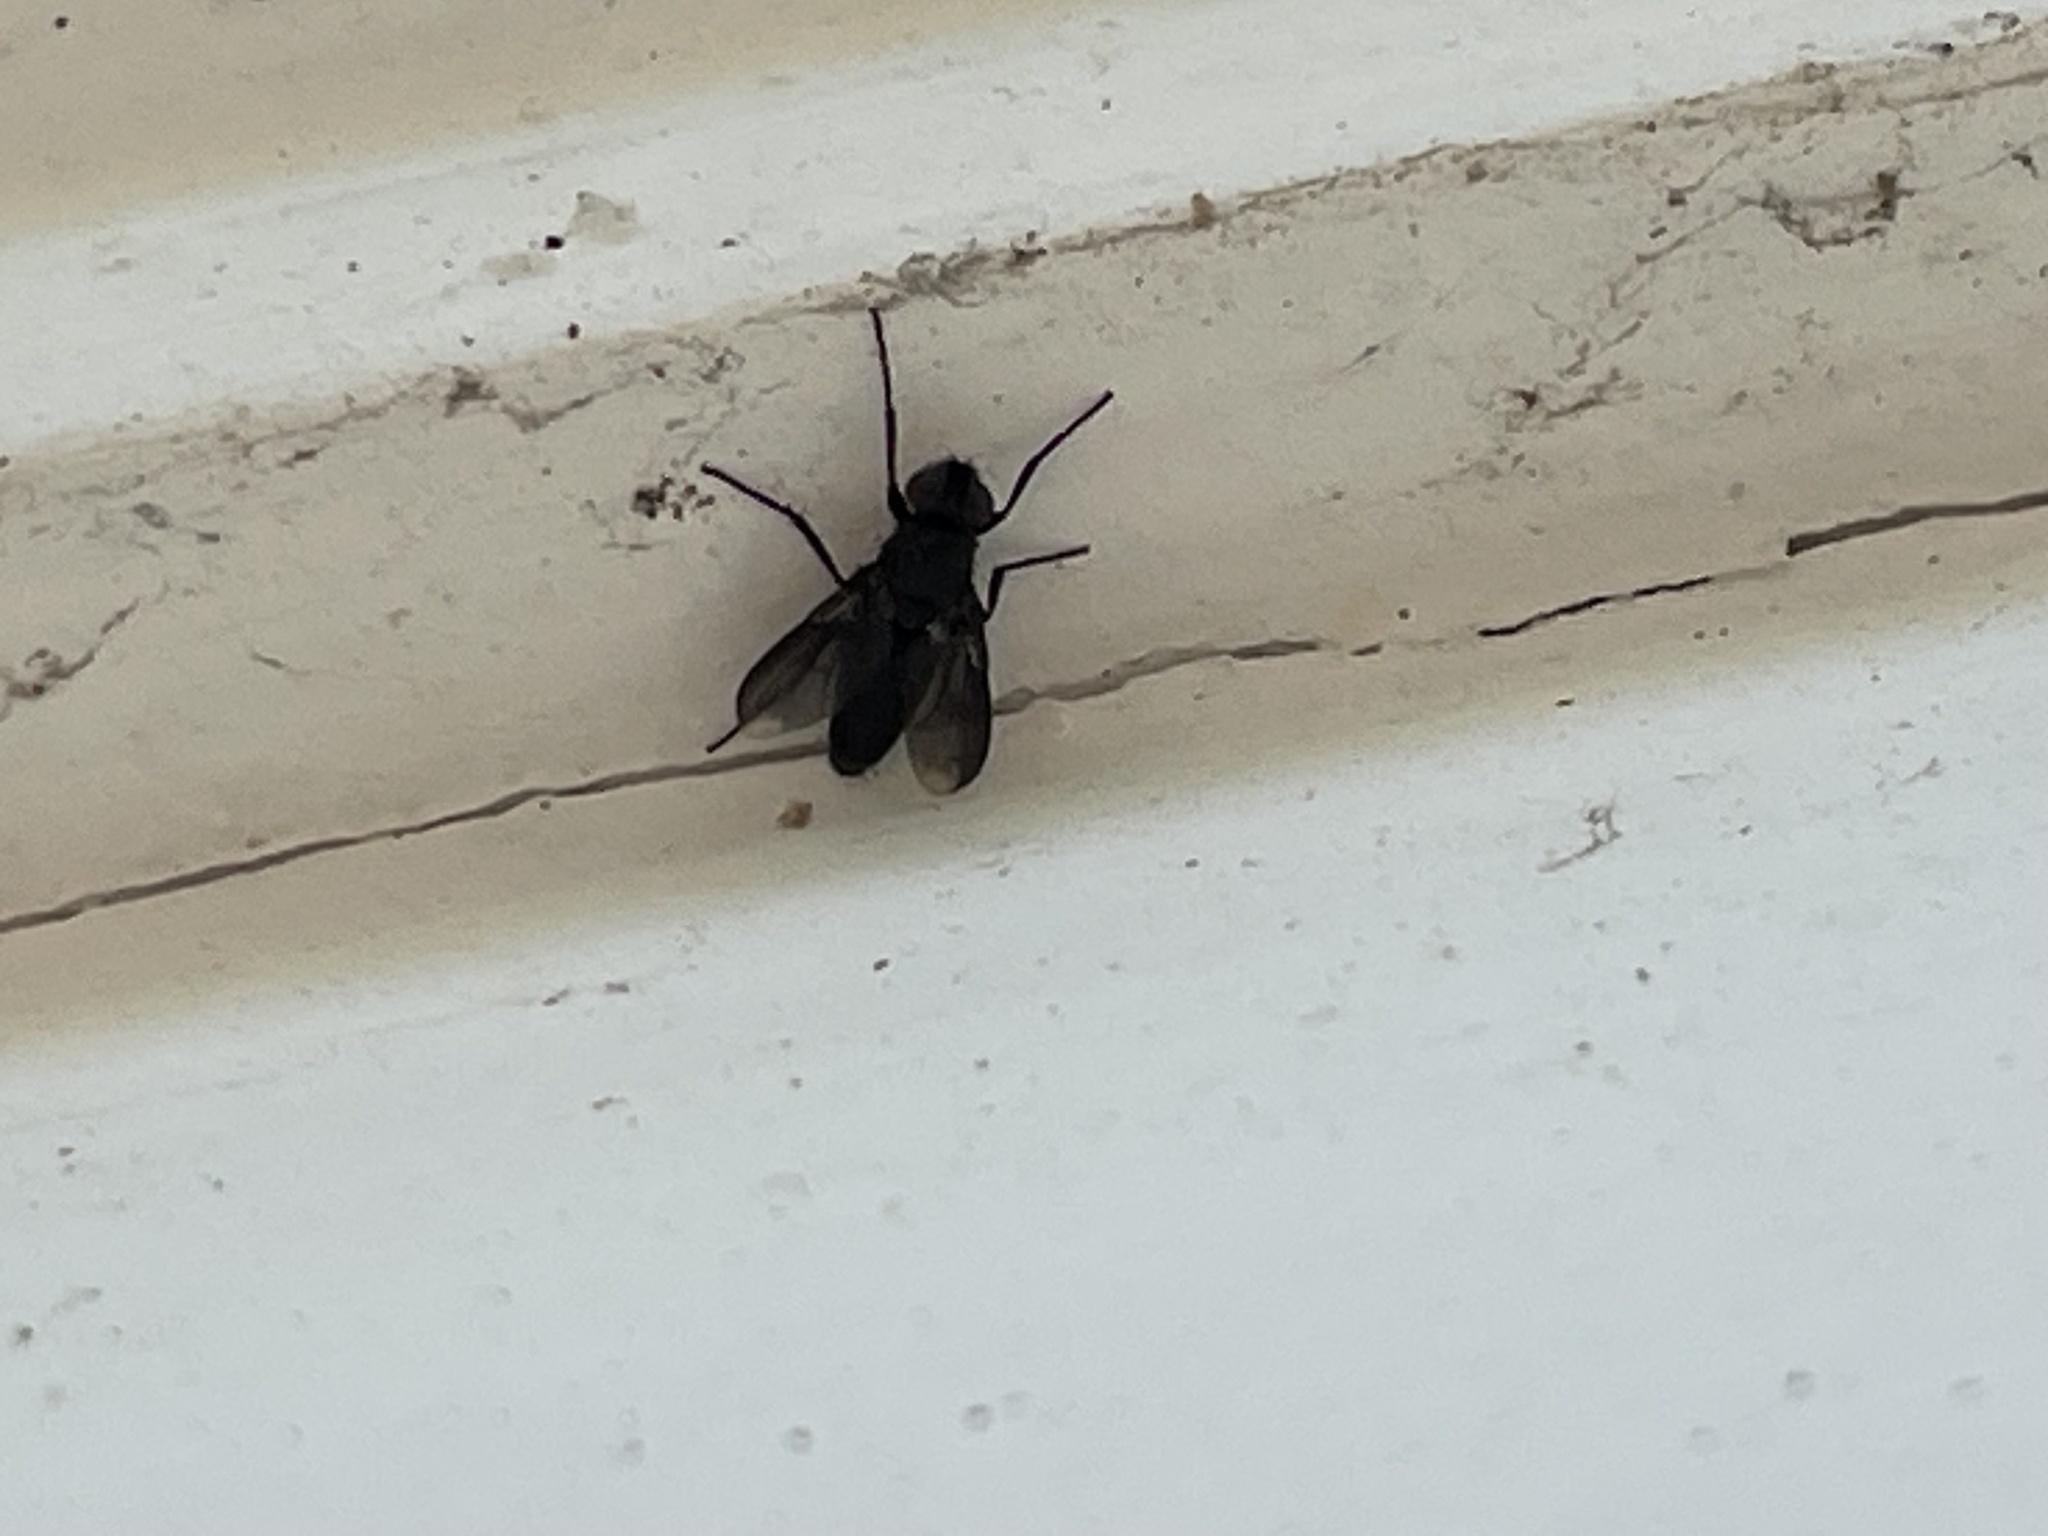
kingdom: Animalia
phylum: Arthropoda
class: Insecta
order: Diptera
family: Calliphoridae
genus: Melanophora
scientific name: Melanophora roralis
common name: Smoky-winged woodlouse-fly
